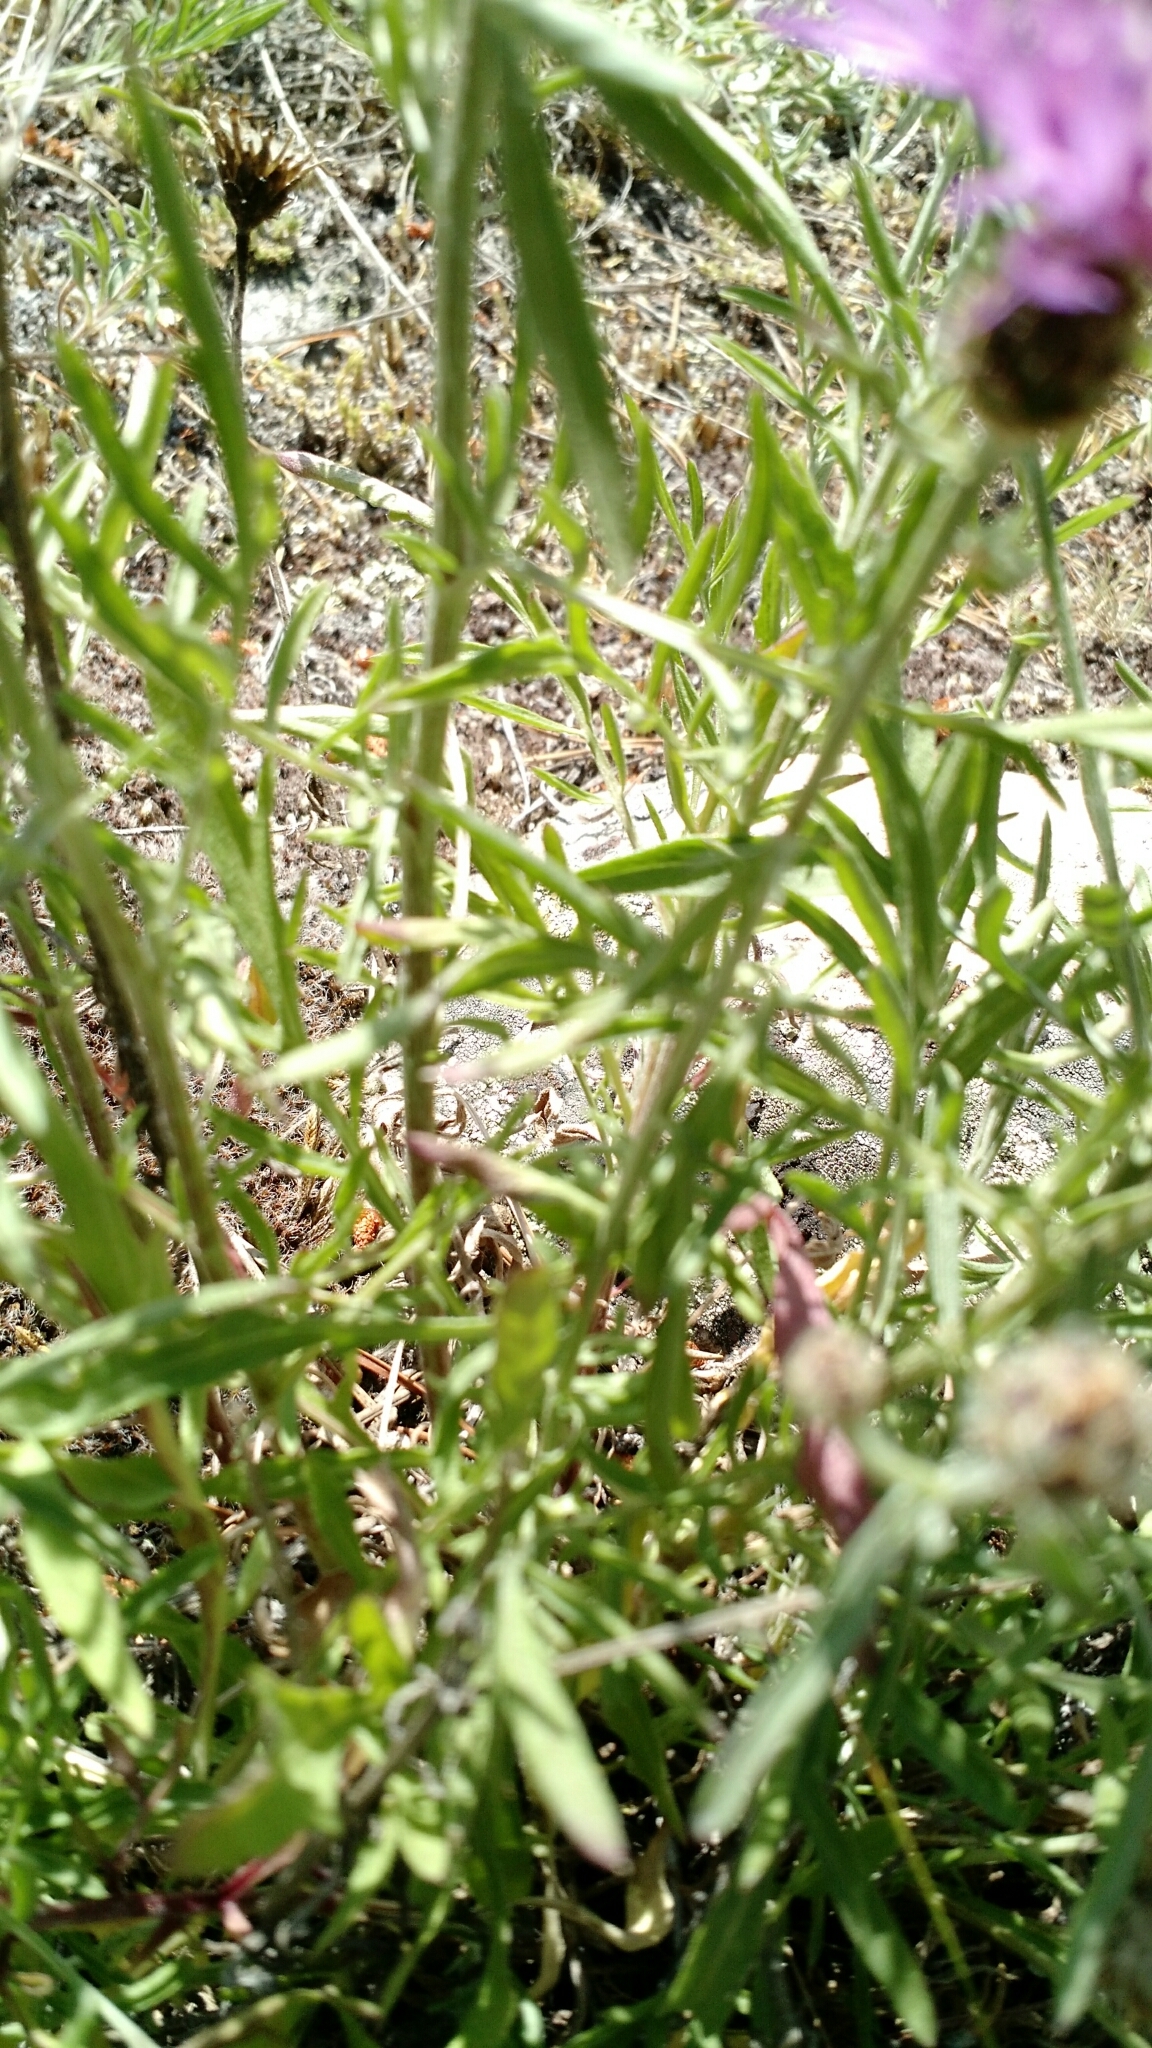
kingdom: Plantae
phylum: Tracheophyta
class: Magnoliopsida
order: Asterales
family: Asteraceae
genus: Centaurea
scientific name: Centaurea stoebe
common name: Spotted knapweed
